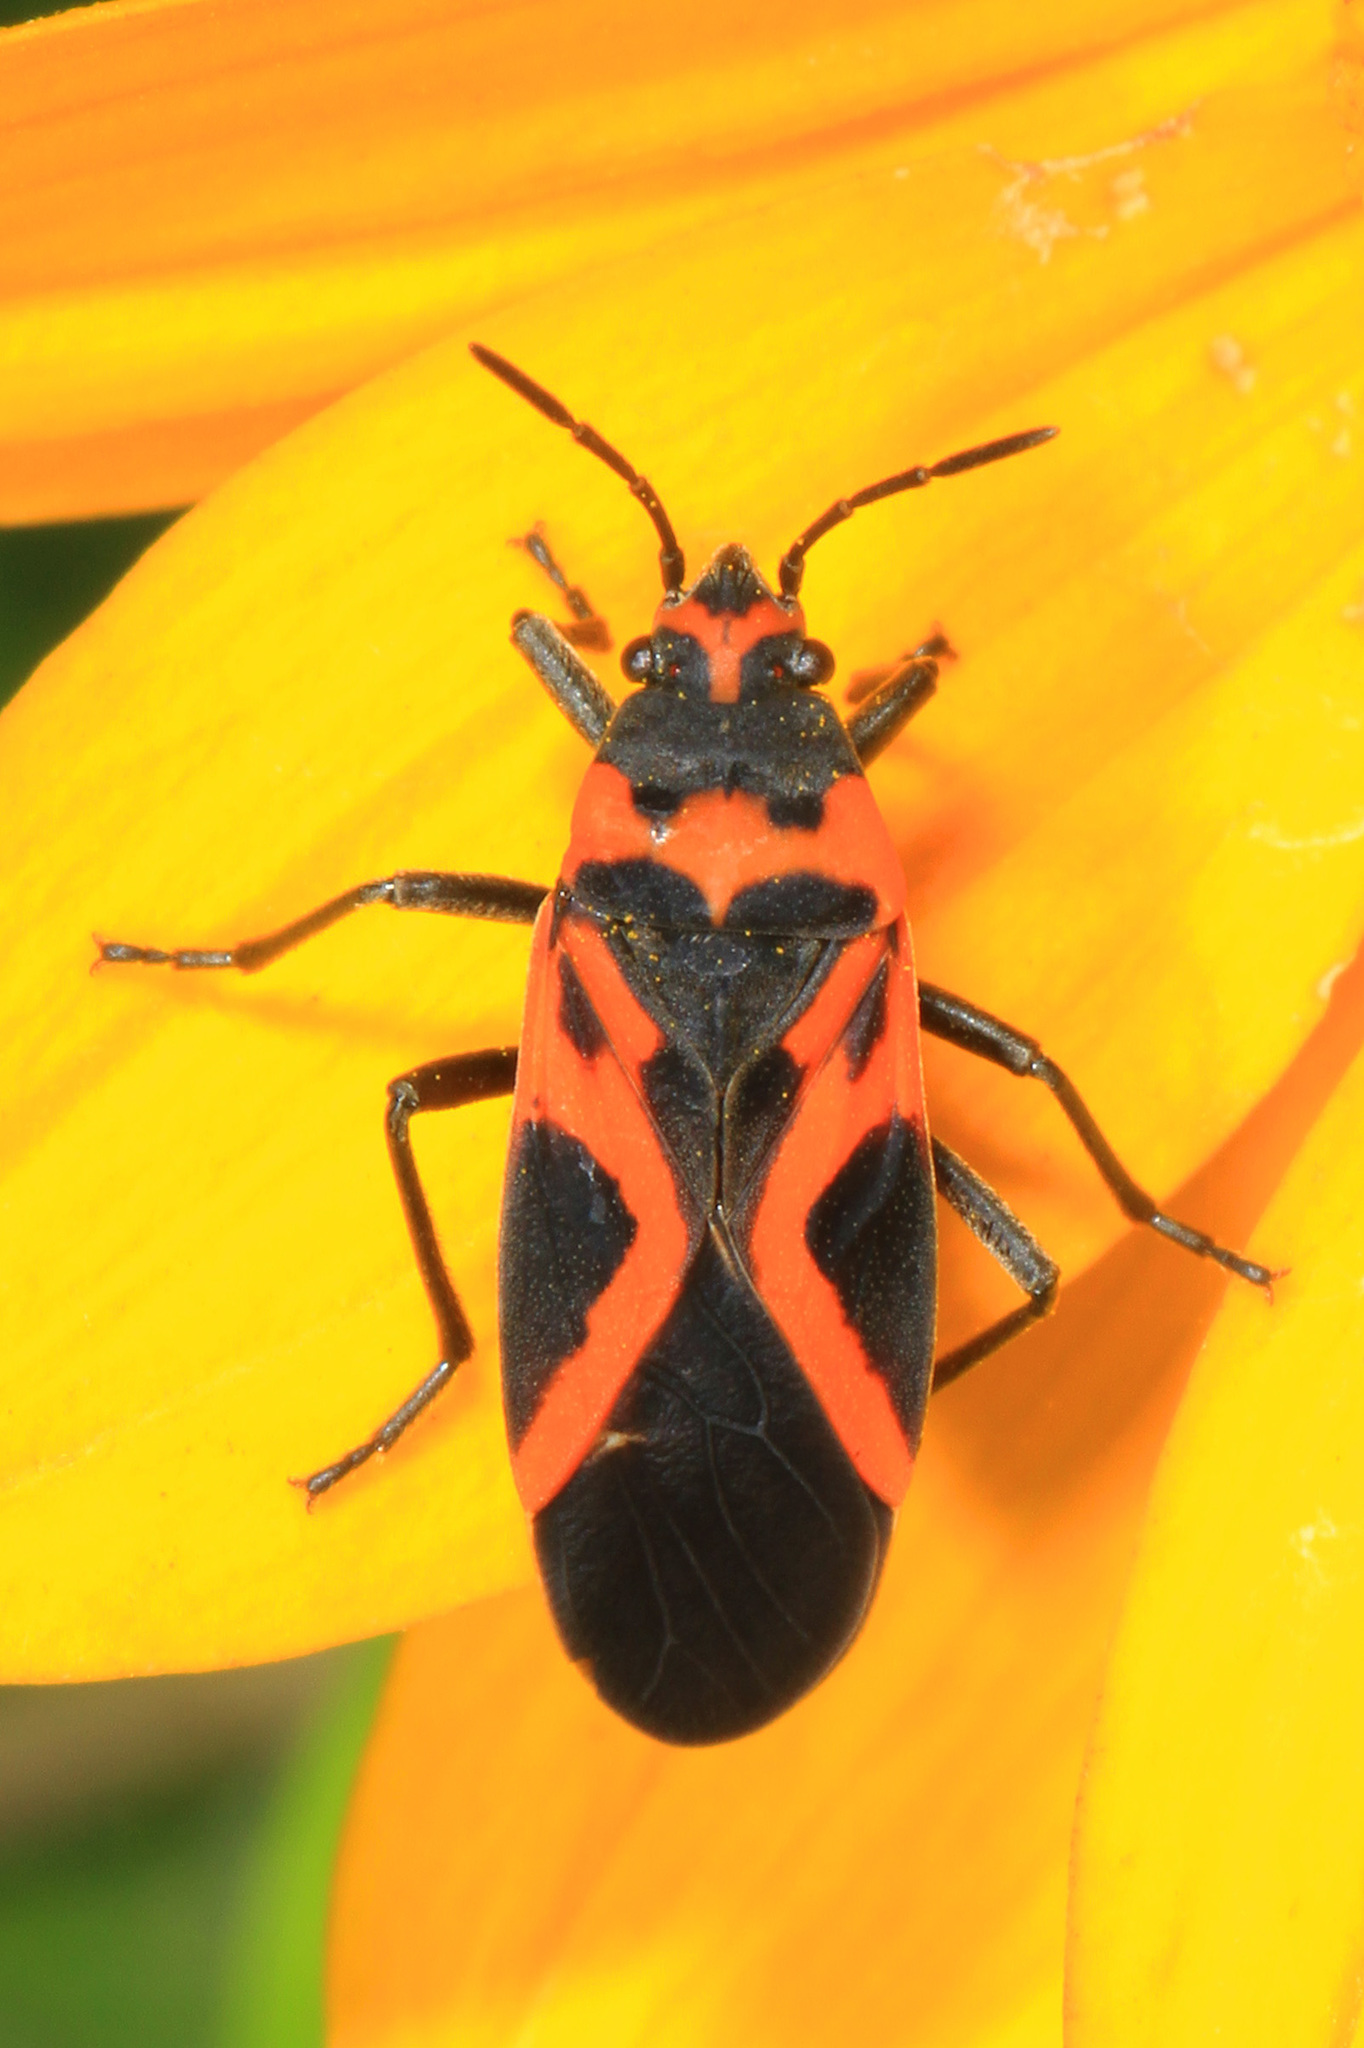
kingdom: Animalia
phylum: Arthropoda
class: Insecta
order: Hemiptera
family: Lygaeidae
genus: Lygaeus
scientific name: Lygaeus turcicus
